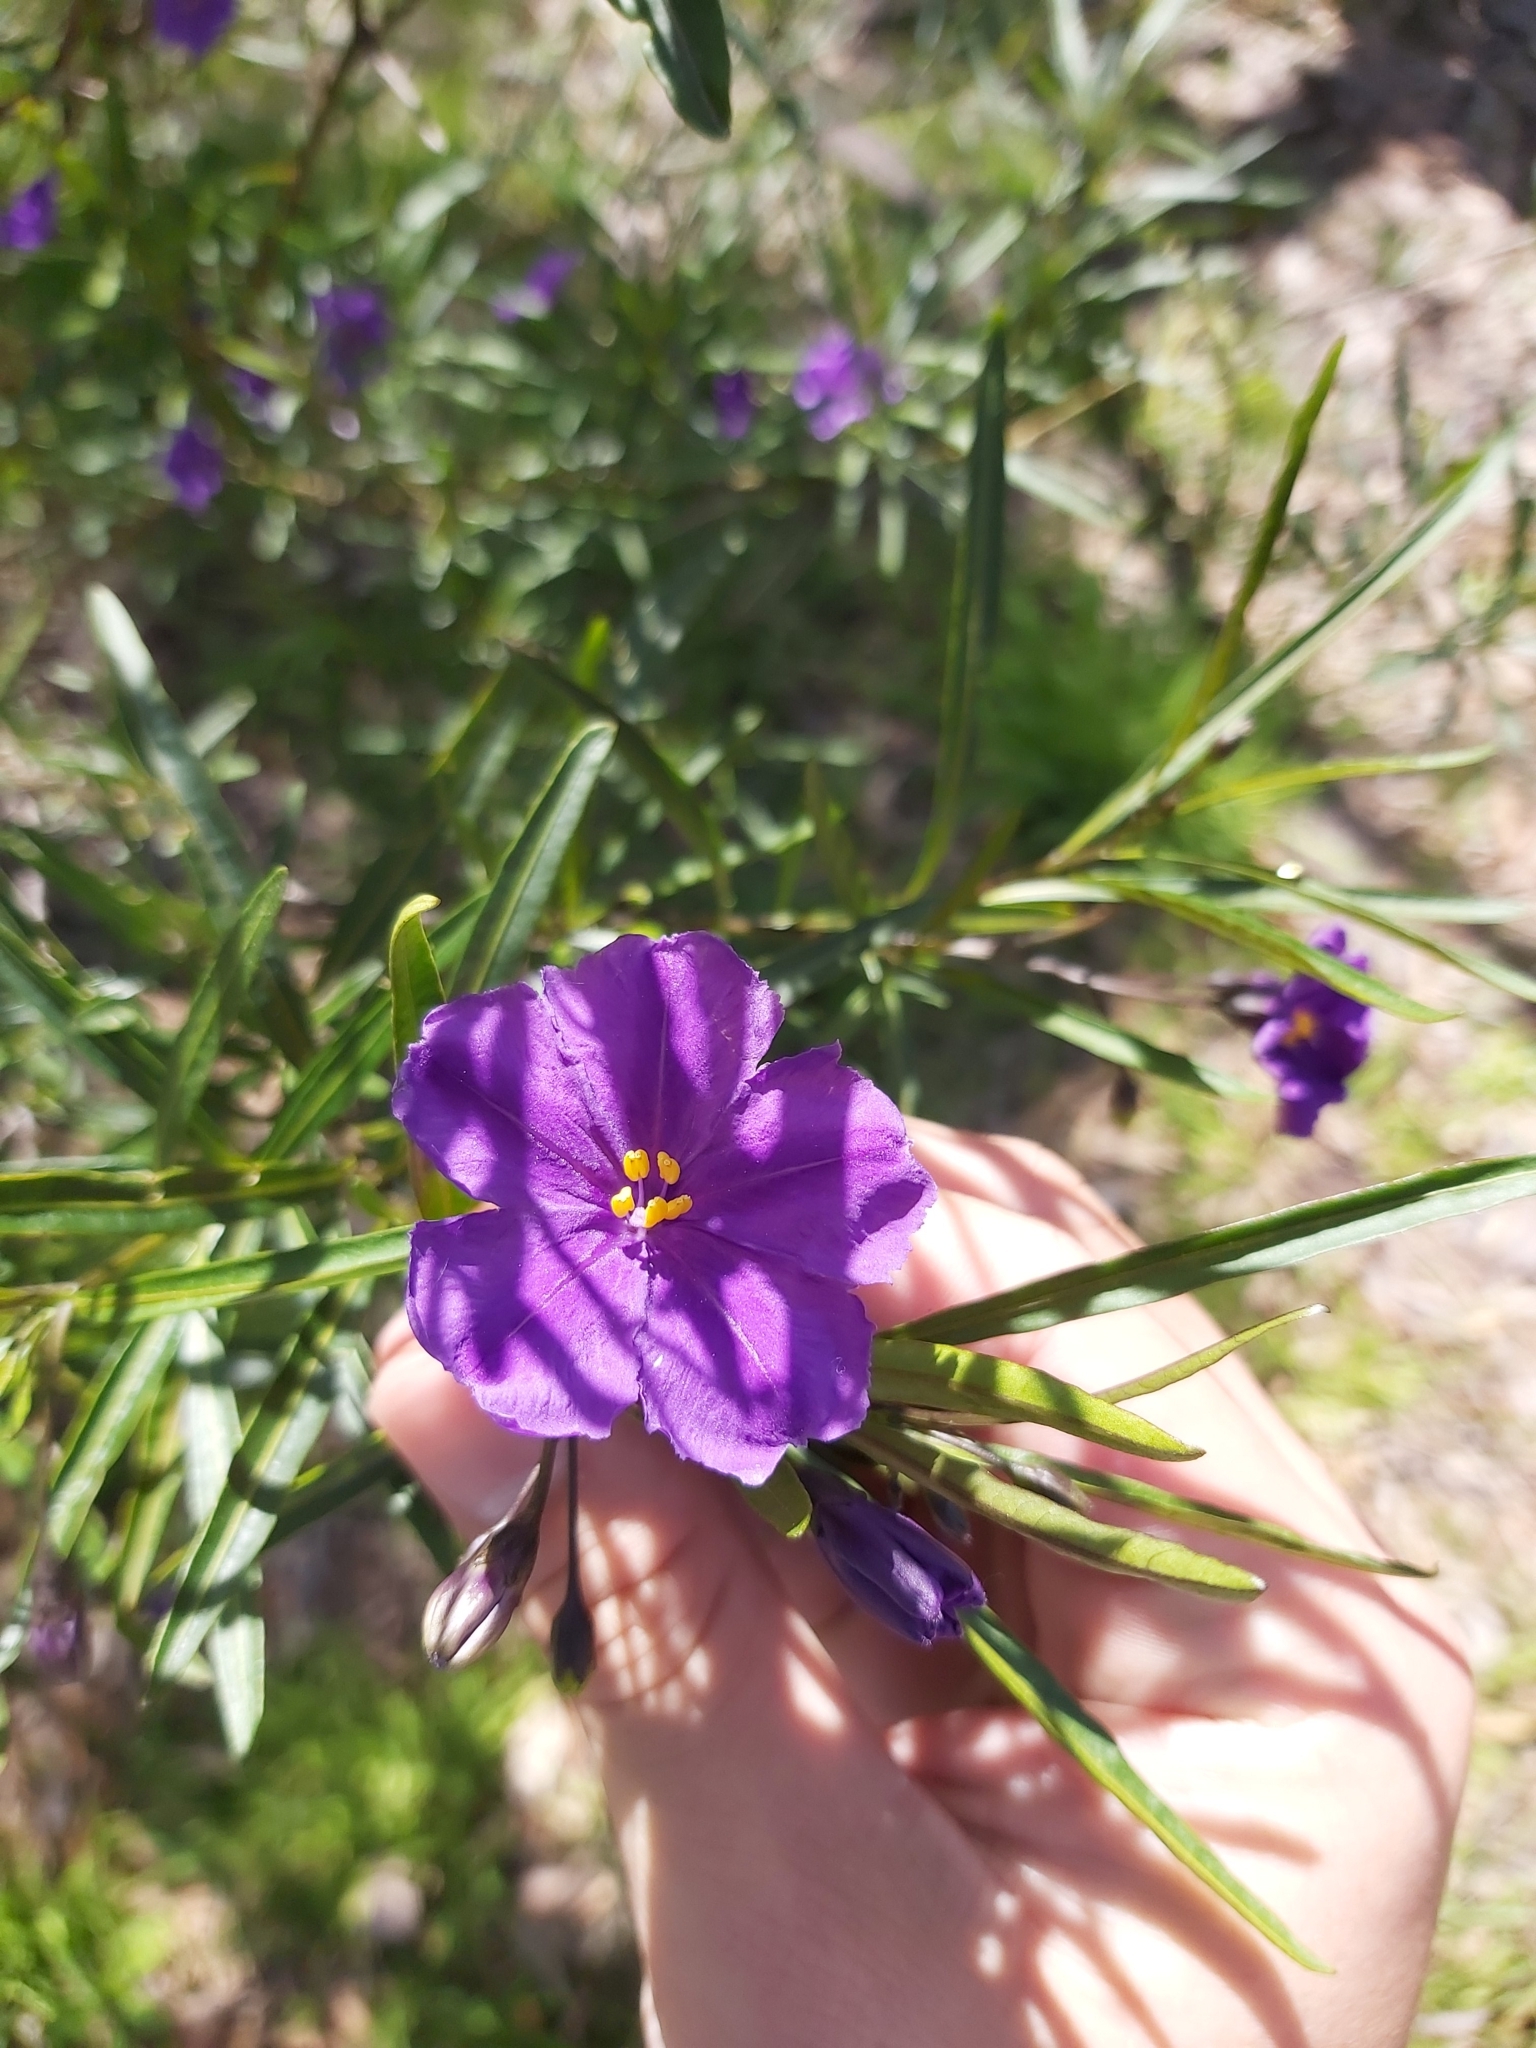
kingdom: Plantae
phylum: Tracheophyta
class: Magnoliopsida
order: Solanales
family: Solanaceae
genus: Solanum
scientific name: Solanum linearifolium
